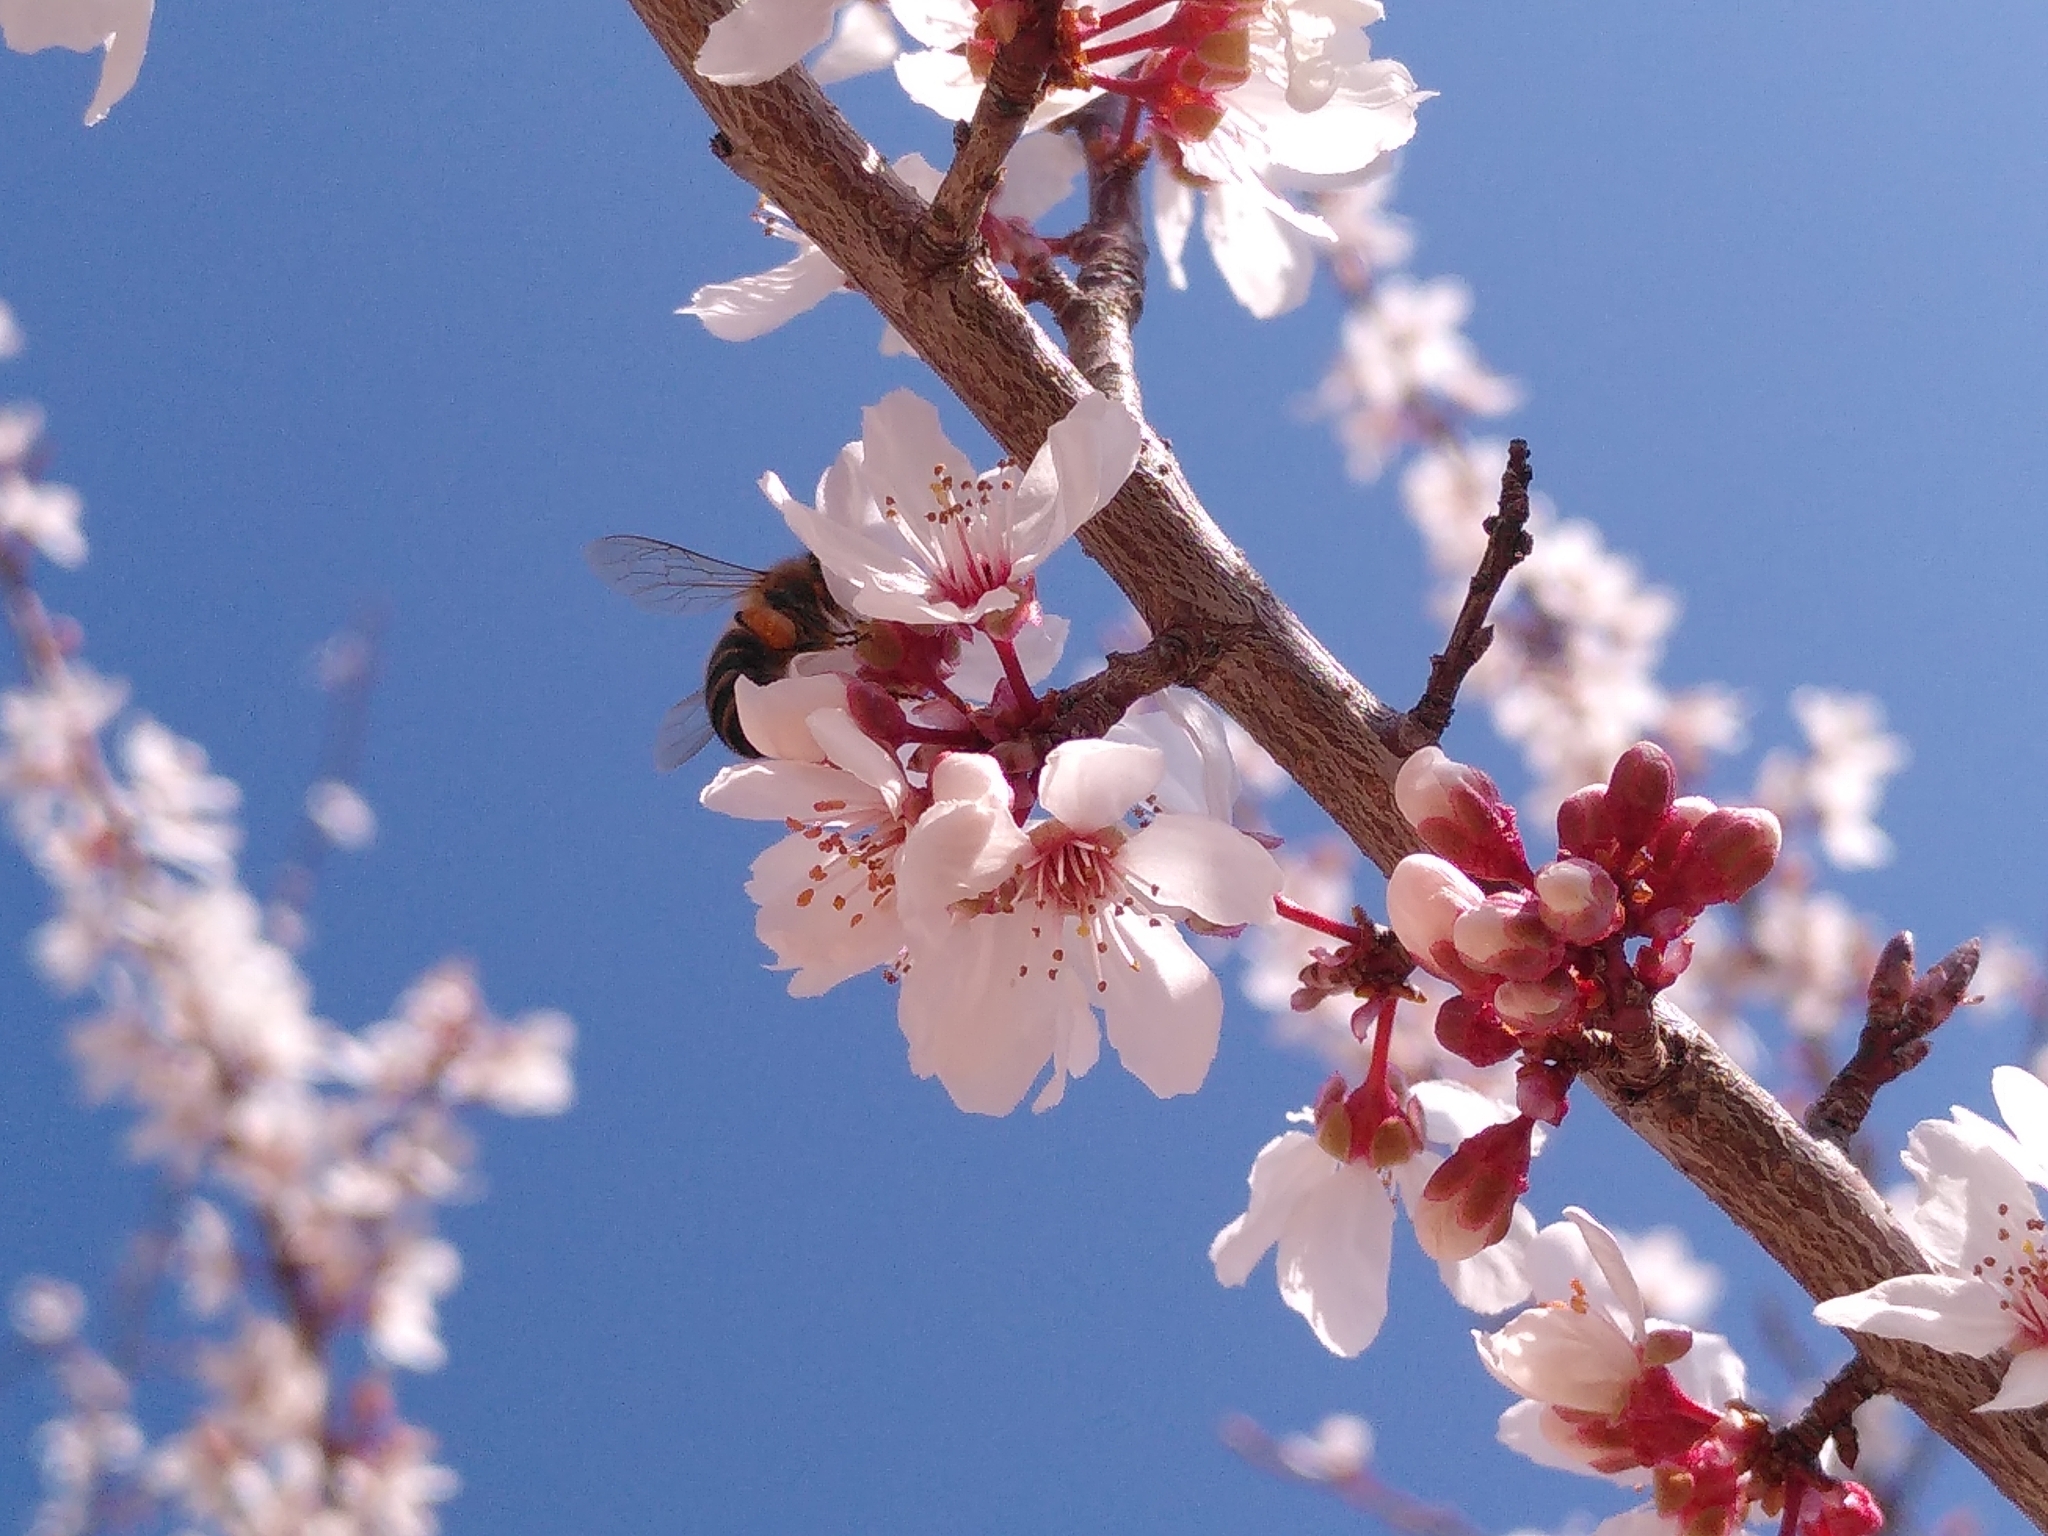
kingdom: Animalia
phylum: Arthropoda
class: Insecta
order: Hymenoptera
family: Apidae
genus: Apis
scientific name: Apis mellifera
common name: Honey bee
